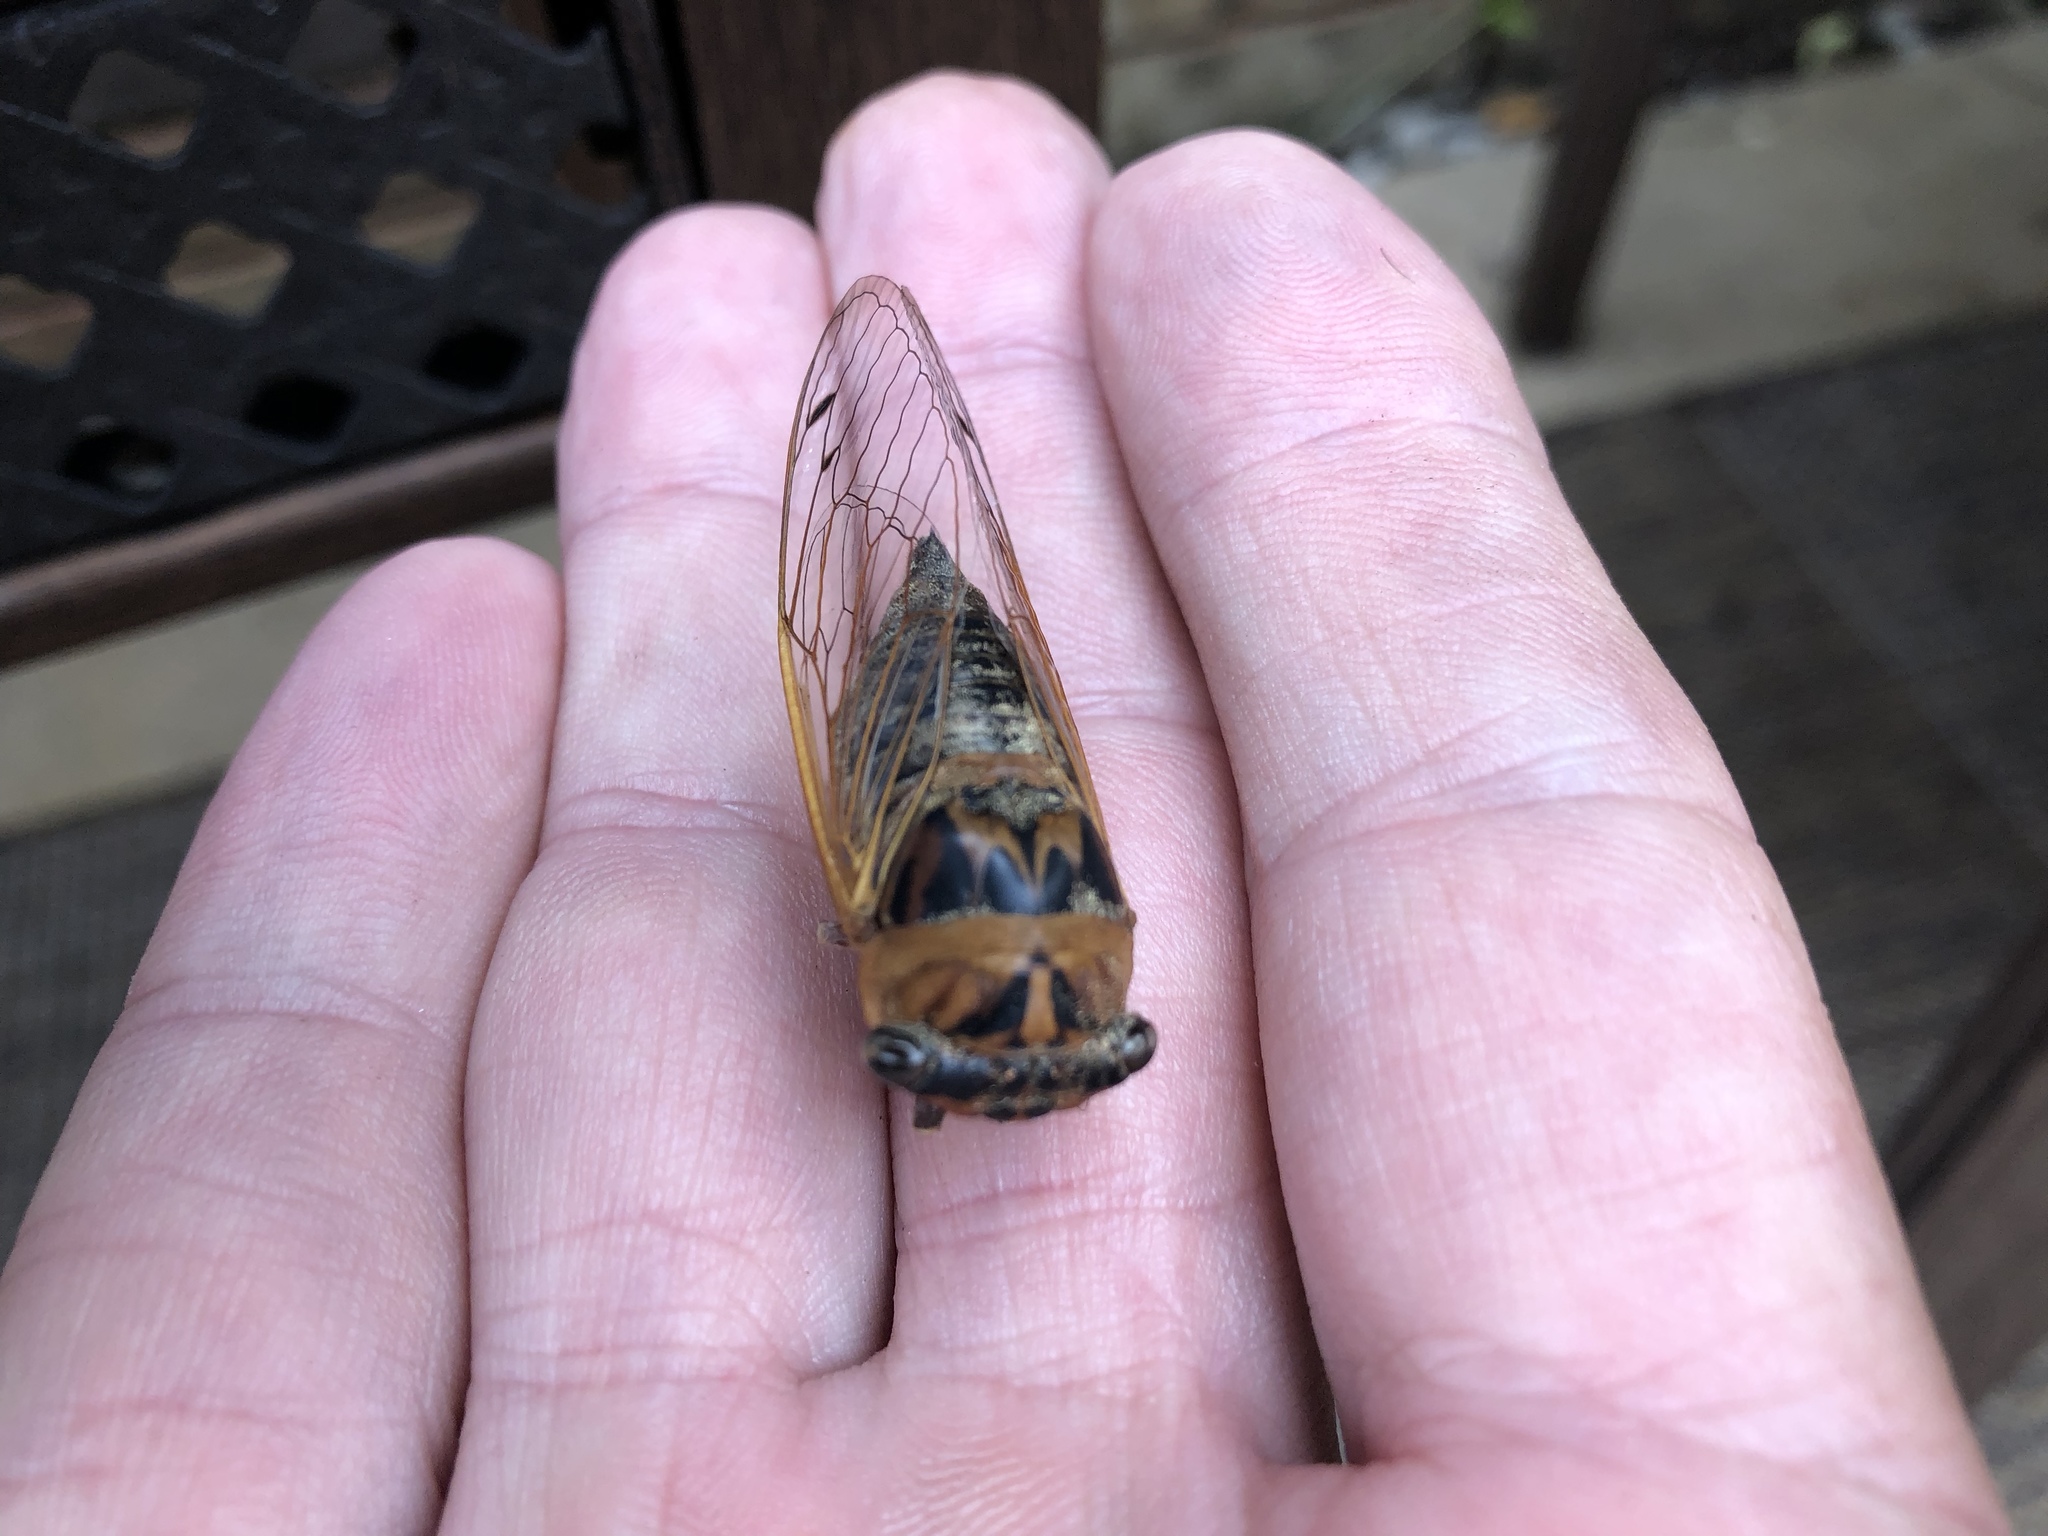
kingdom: Animalia
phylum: Arthropoda
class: Insecta
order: Hemiptera
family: Cicadidae
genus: Neotibicen
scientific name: Neotibicen aurifer
